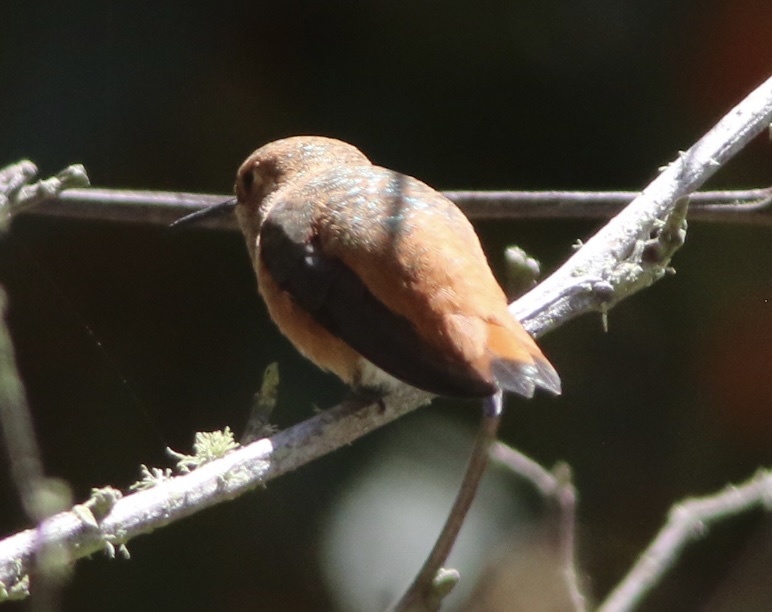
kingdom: Animalia
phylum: Chordata
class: Aves
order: Apodiformes
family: Trochilidae
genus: Selasphorus
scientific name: Selasphorus sasin
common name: Allen's hummingbird
